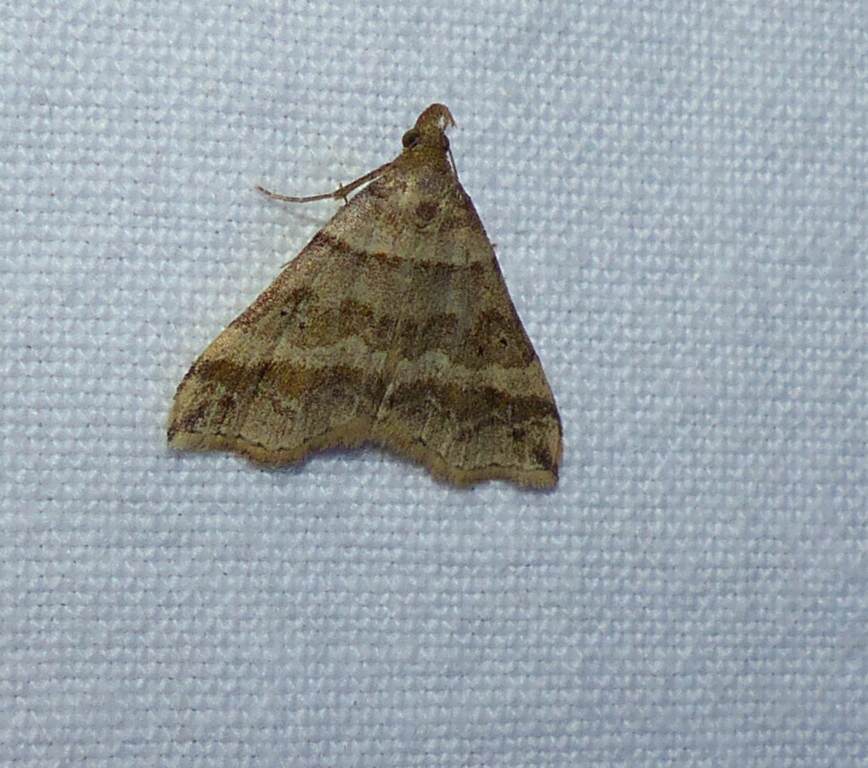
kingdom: Animalia
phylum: Arthropoda
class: Insecta
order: Lepidoptera
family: Erebidae
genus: Phaeolita
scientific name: Phaeolita pyramusalis
